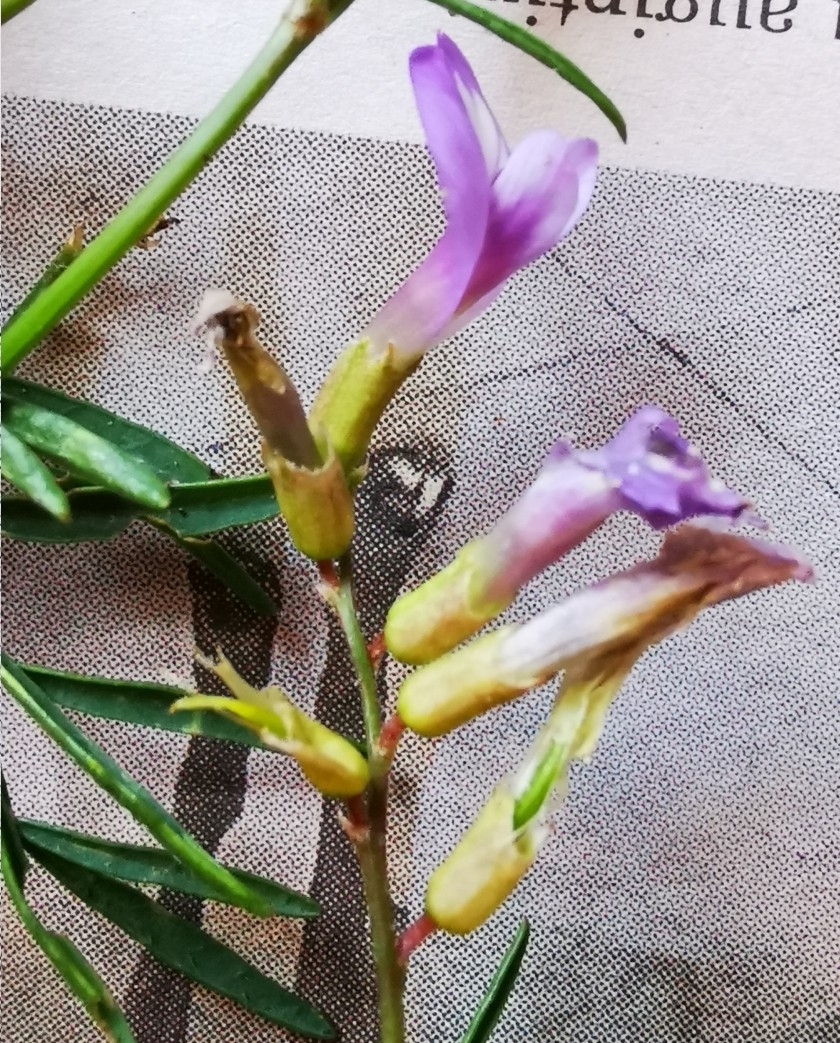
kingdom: Plantae
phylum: Tracheophyta
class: Magnoliopsida
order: Fabales
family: Fabaceae
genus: Astragalus
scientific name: Astragalus arenarius
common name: Arenarious milk-vetch
